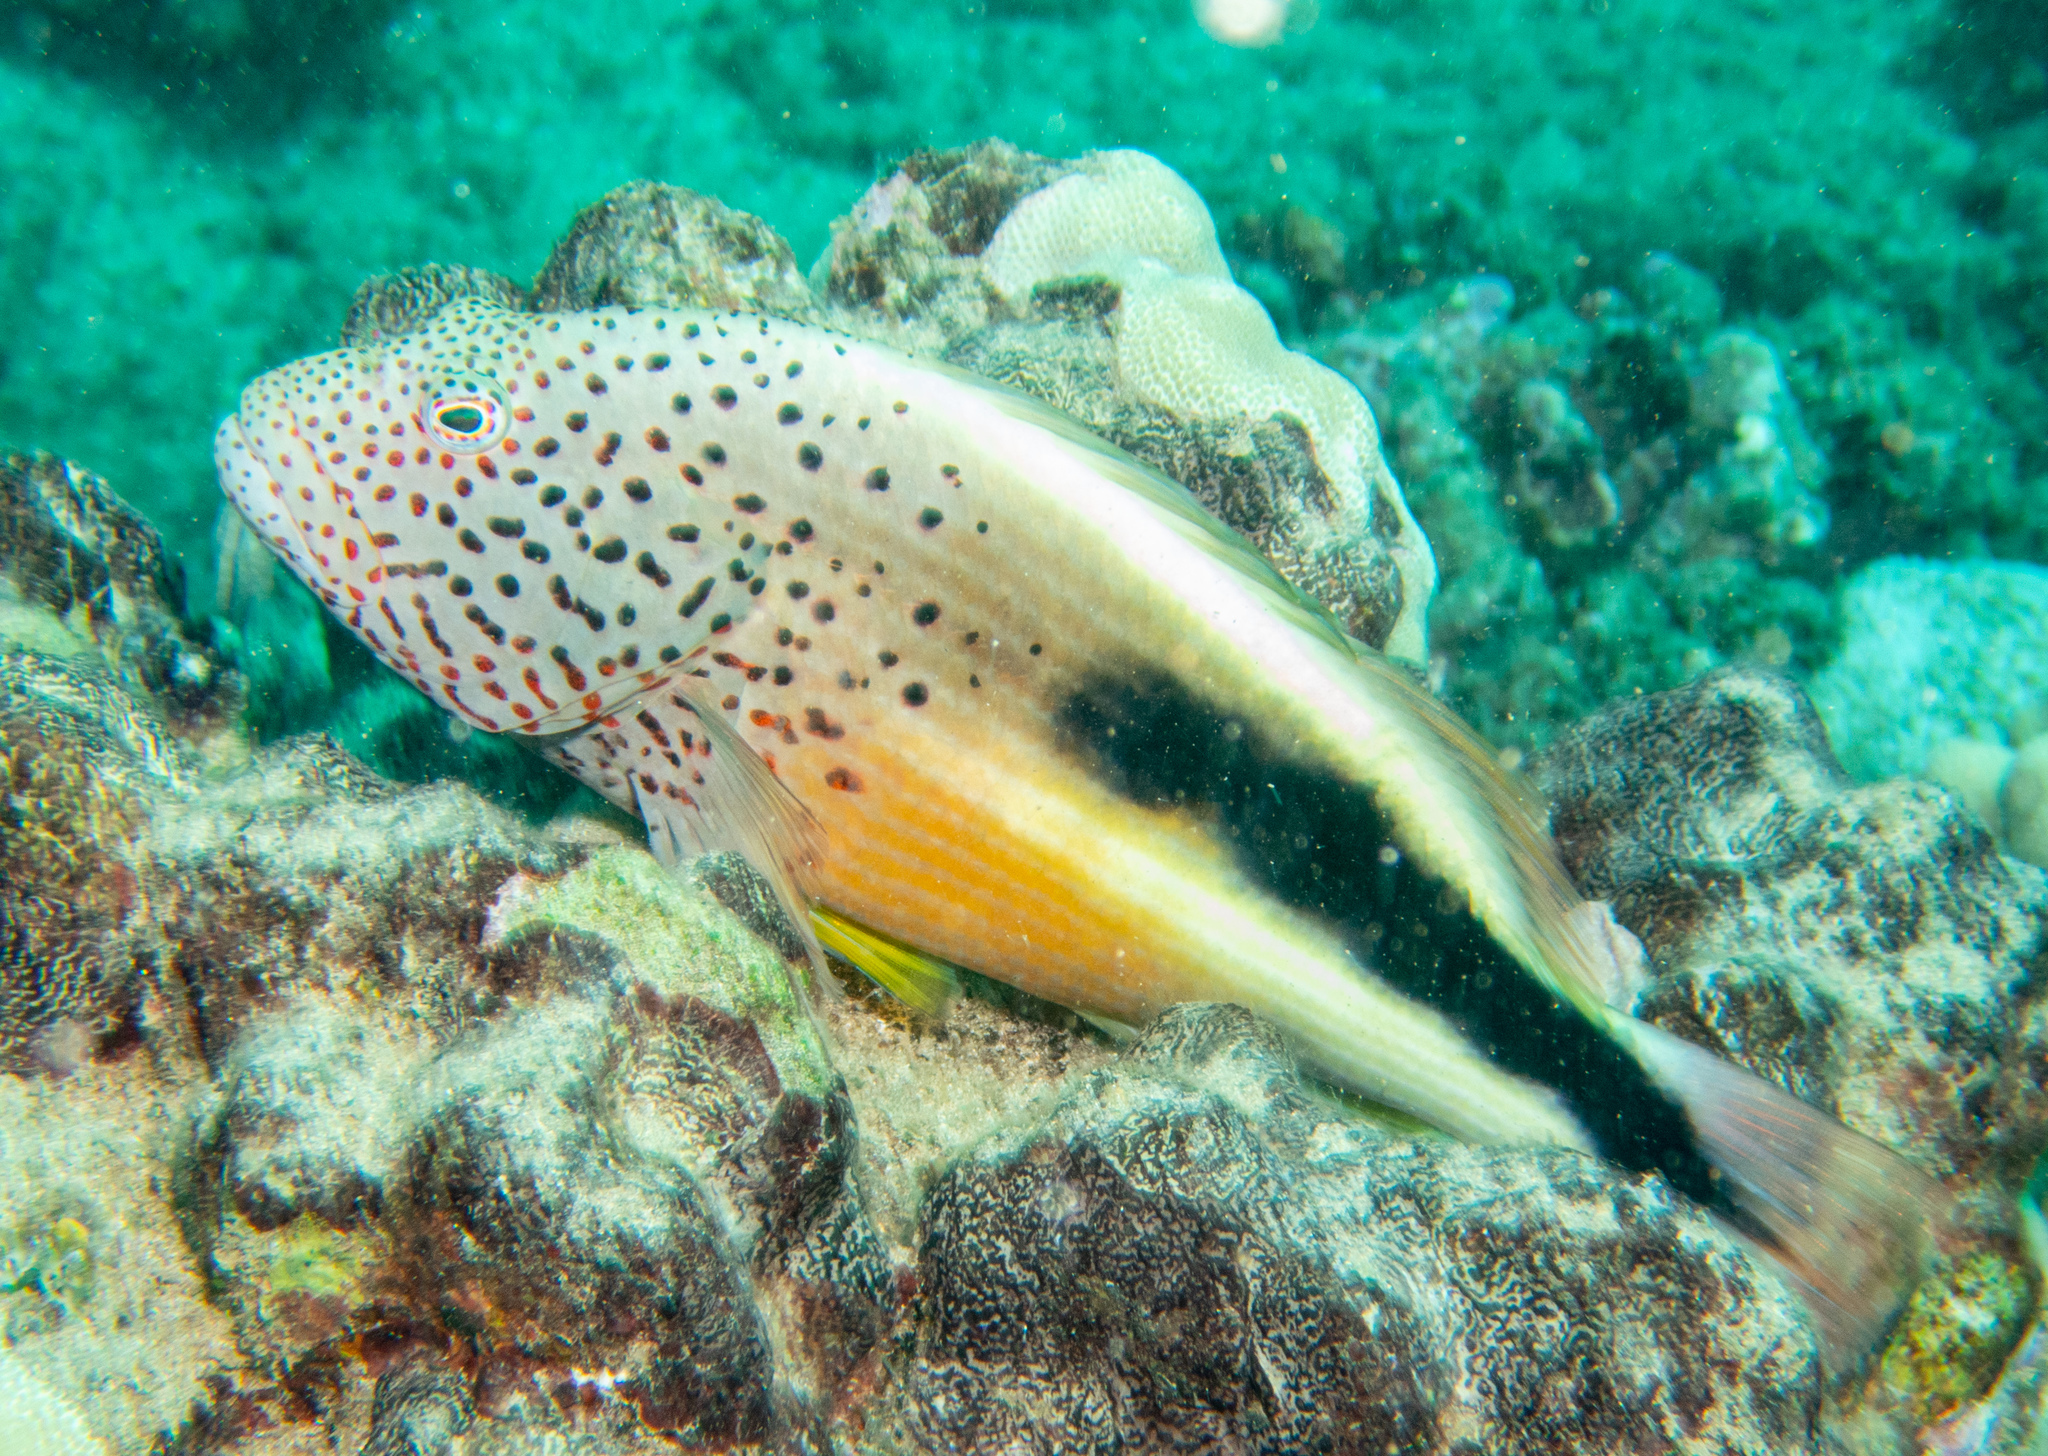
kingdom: Animalia
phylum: Chordata
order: Perciformes
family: Cirrhitidae
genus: Paracirrhites
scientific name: Paracirrhites forsteri
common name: Freckled hawkfish
